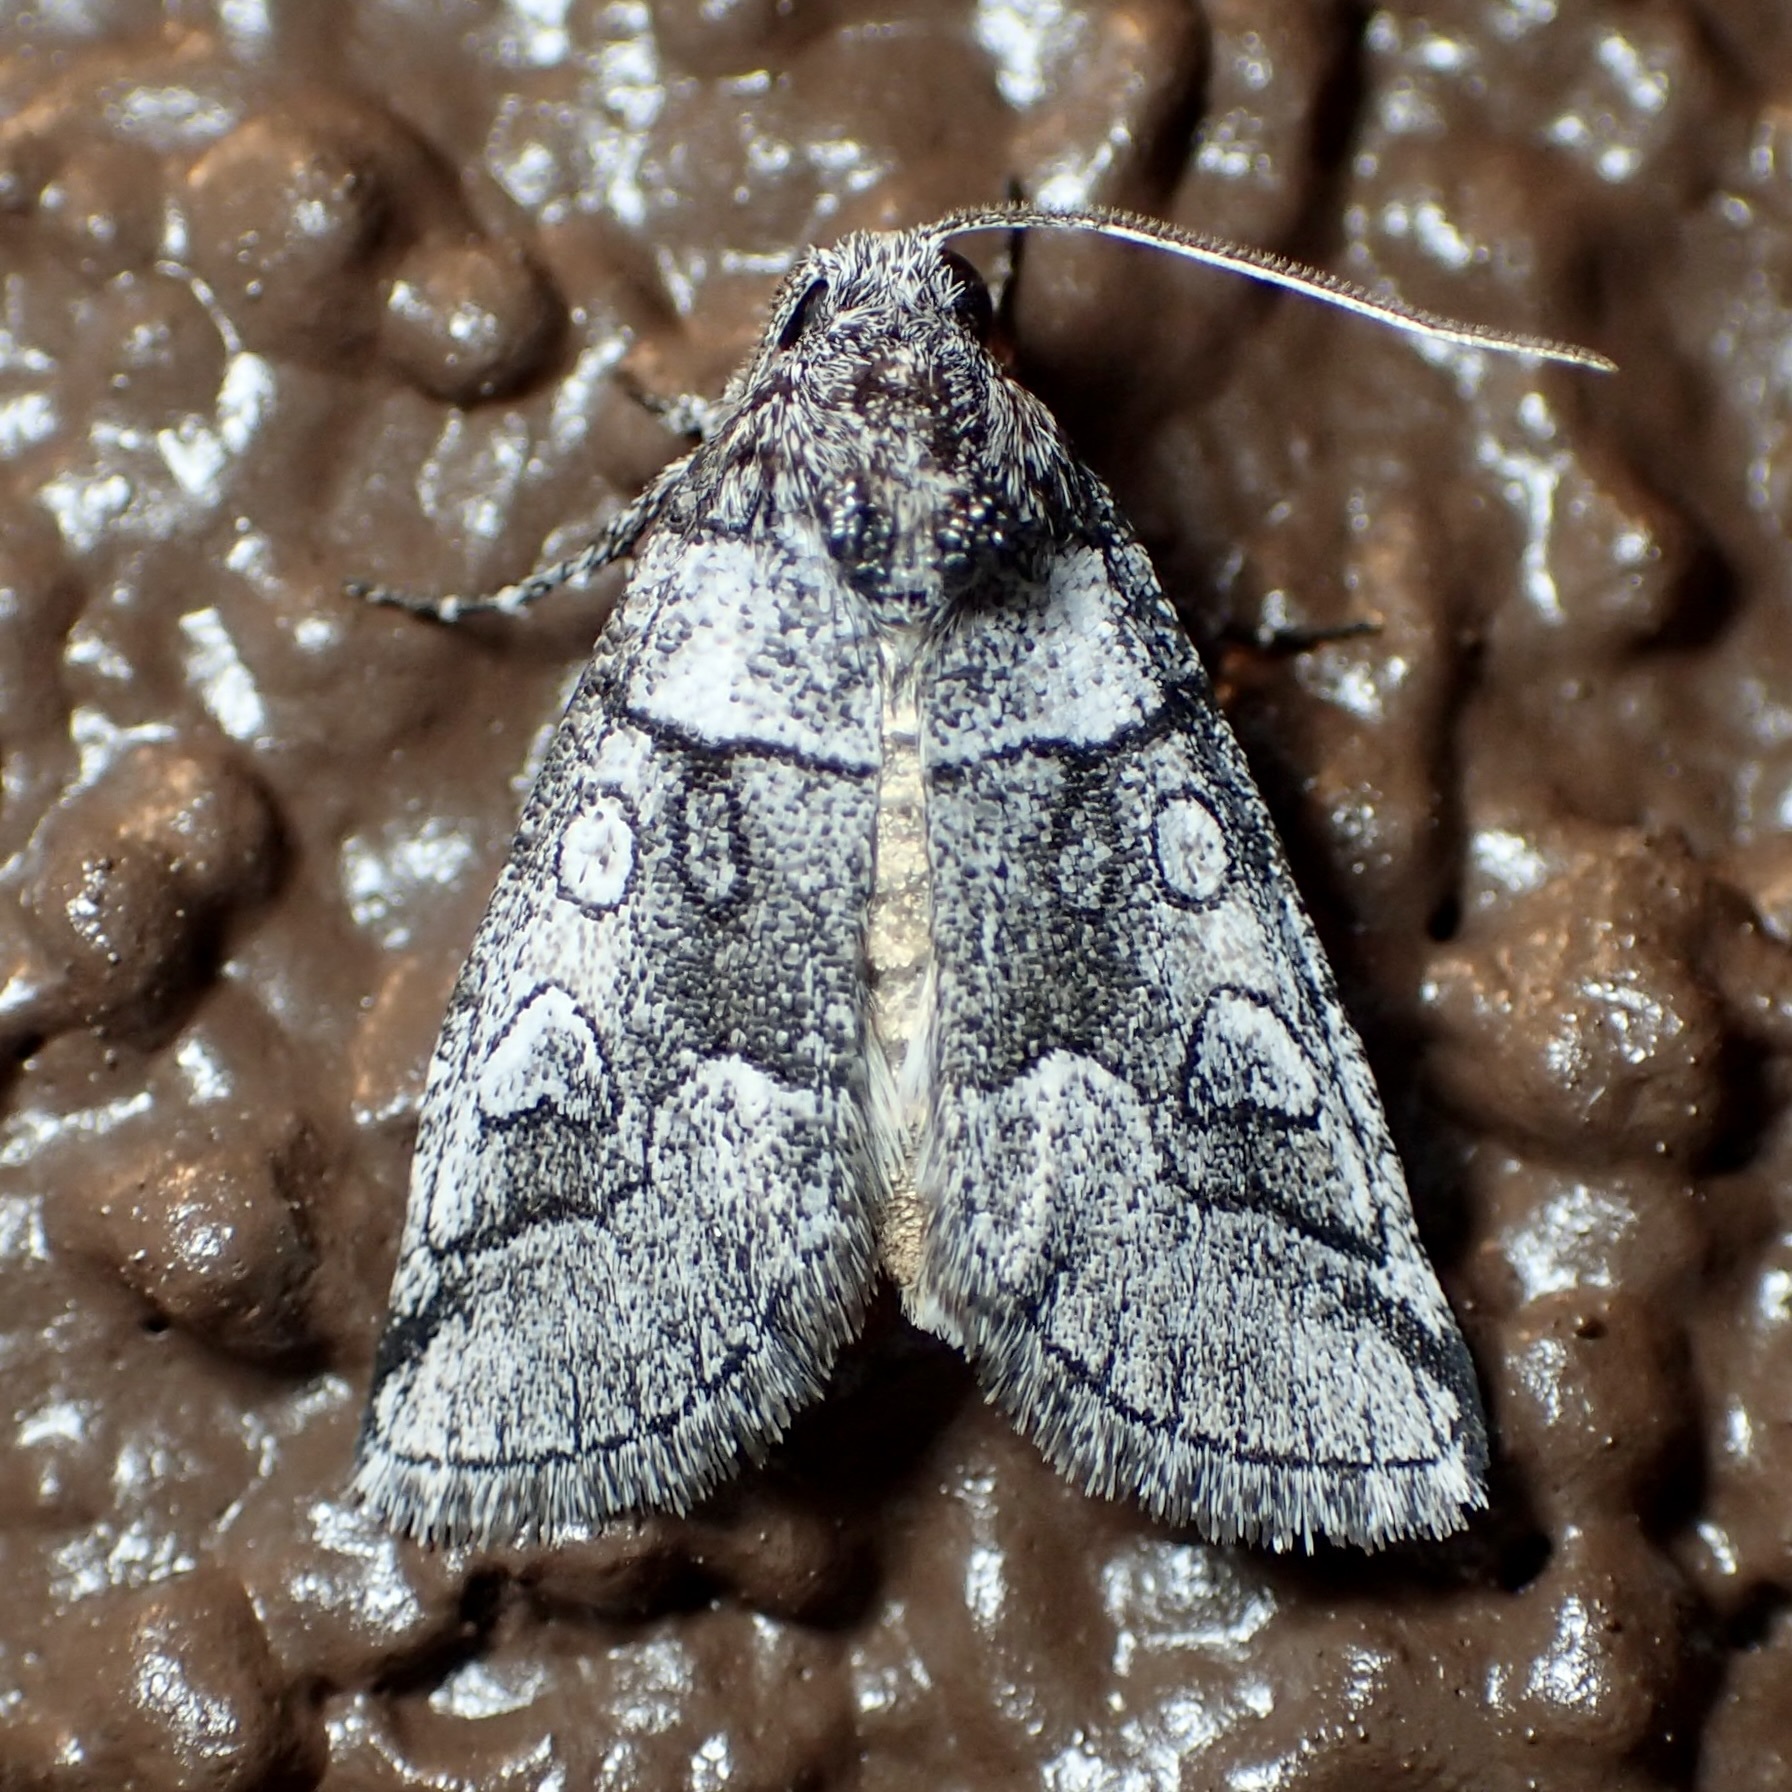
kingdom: Animalia
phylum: Arthropoda
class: Insecta
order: Lepidoptera
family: Noctuidae
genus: Oxycnemis
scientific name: Oxycnemis advena
